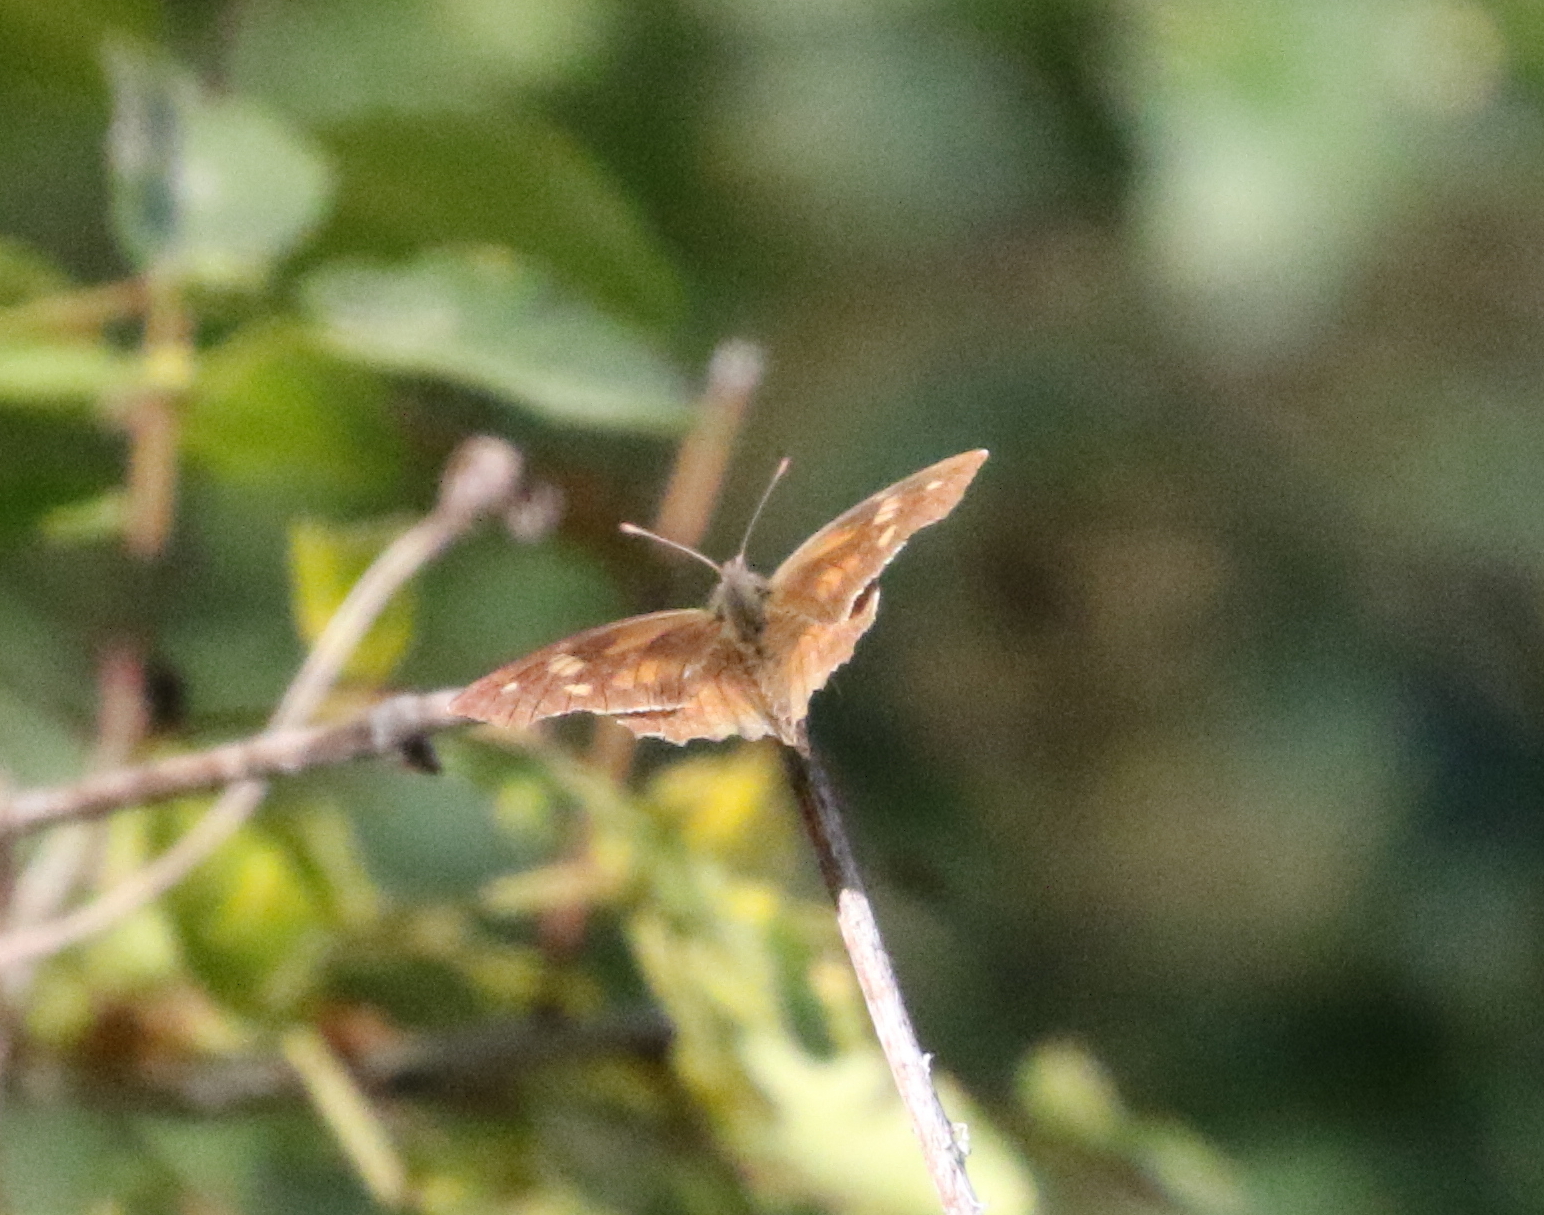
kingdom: Animalia
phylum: Arthropoda
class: Insecta
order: Lepidoptera
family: Nymphalidae
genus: Libytheana
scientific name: Libytheana carinenta
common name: American snout
